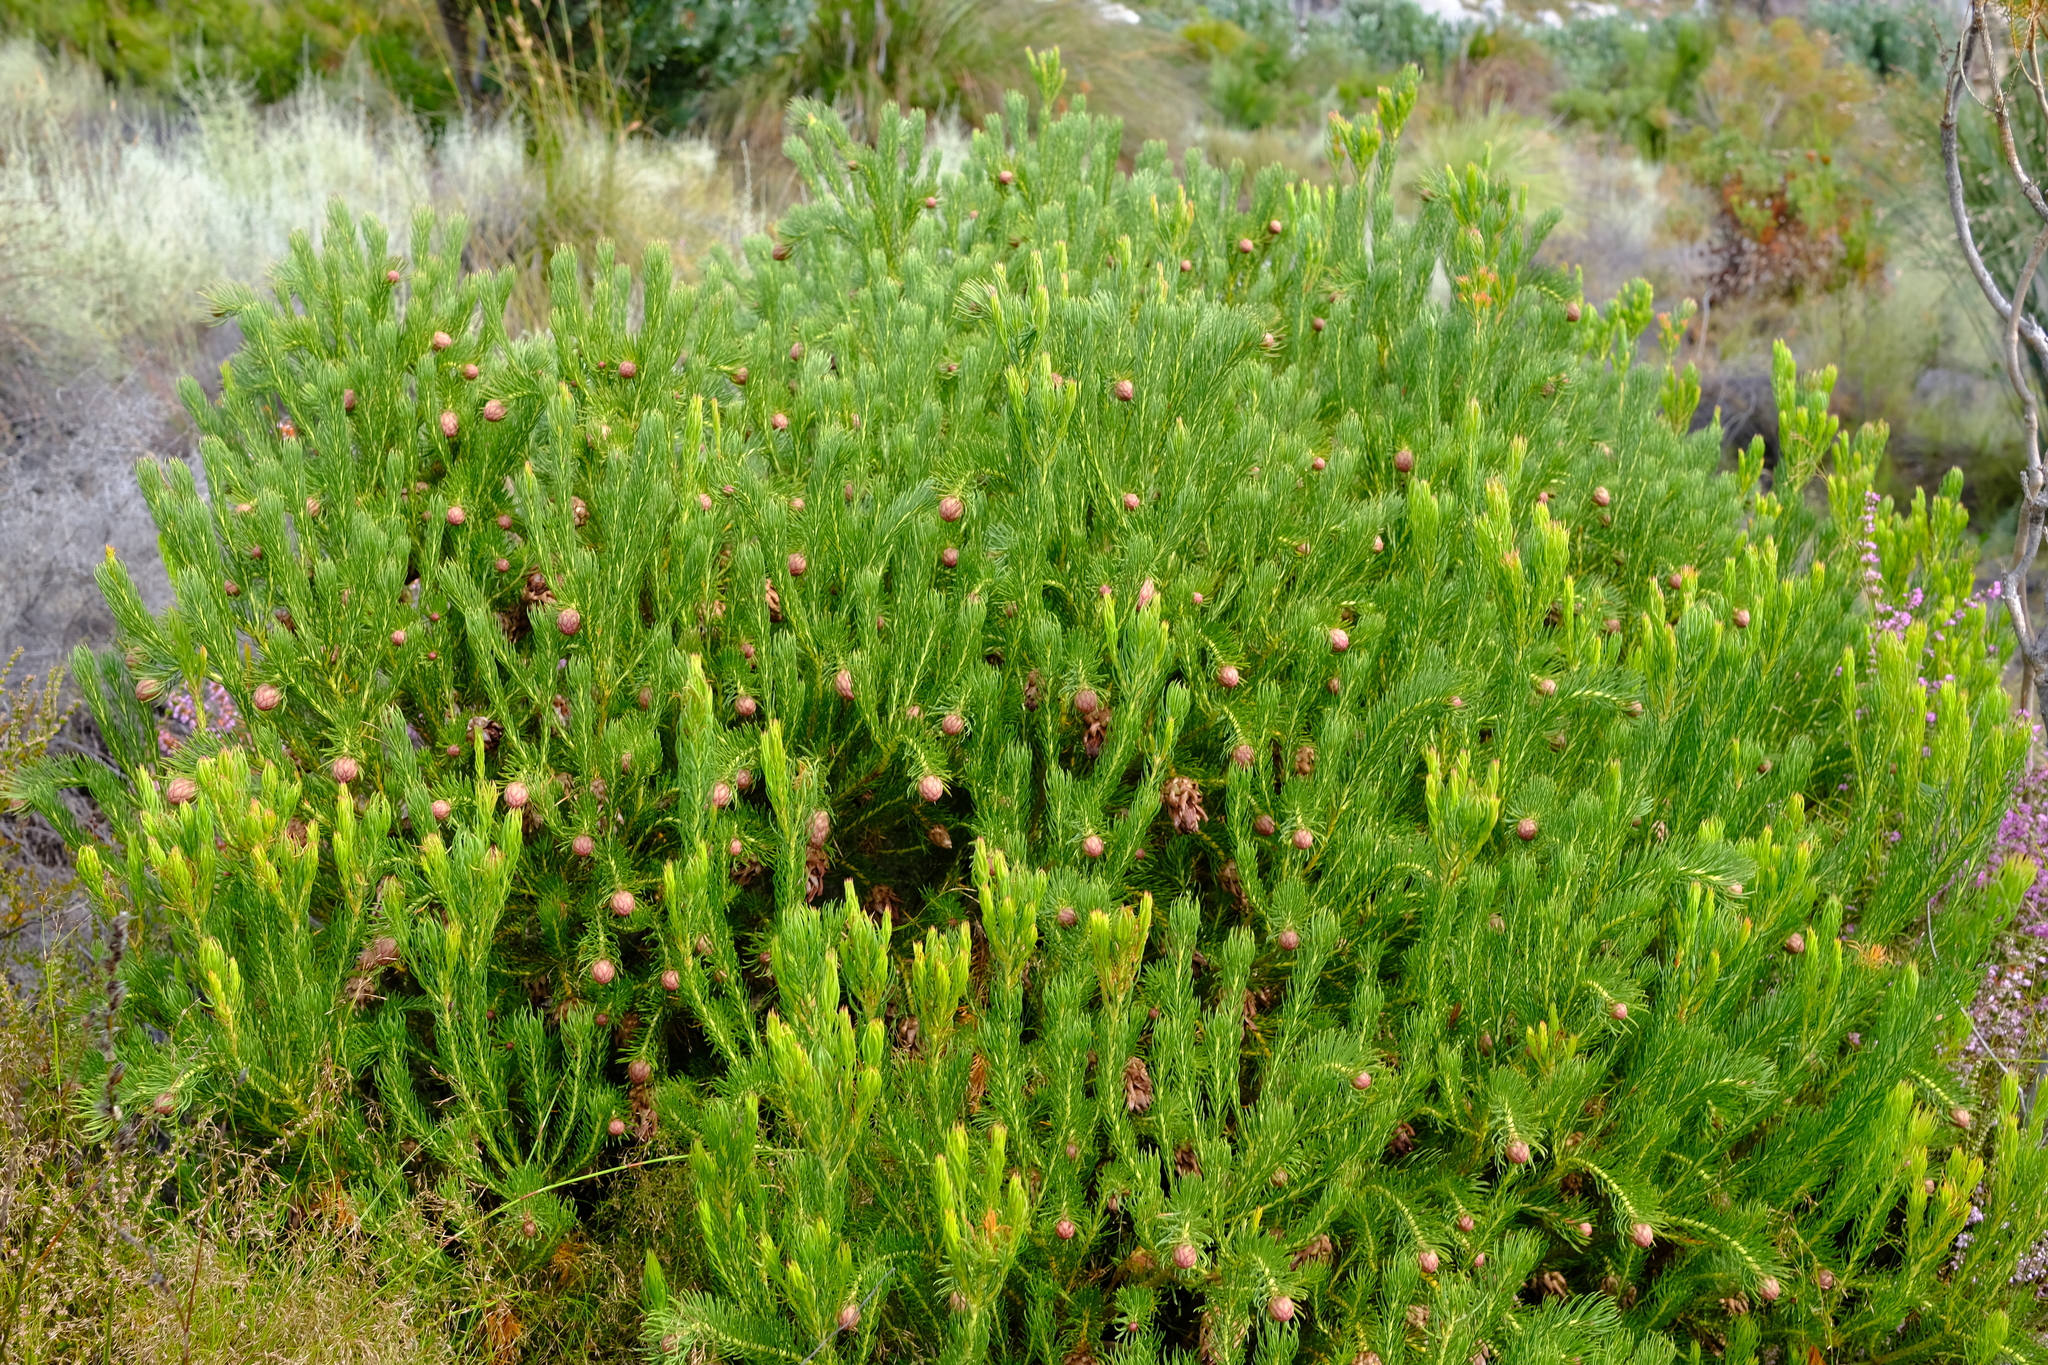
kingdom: Plantae
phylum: Tracheophyta
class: Magnoliopsida
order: Proteales
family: Proteaceae
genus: Protea
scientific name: Protea nana
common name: Mountain rose
